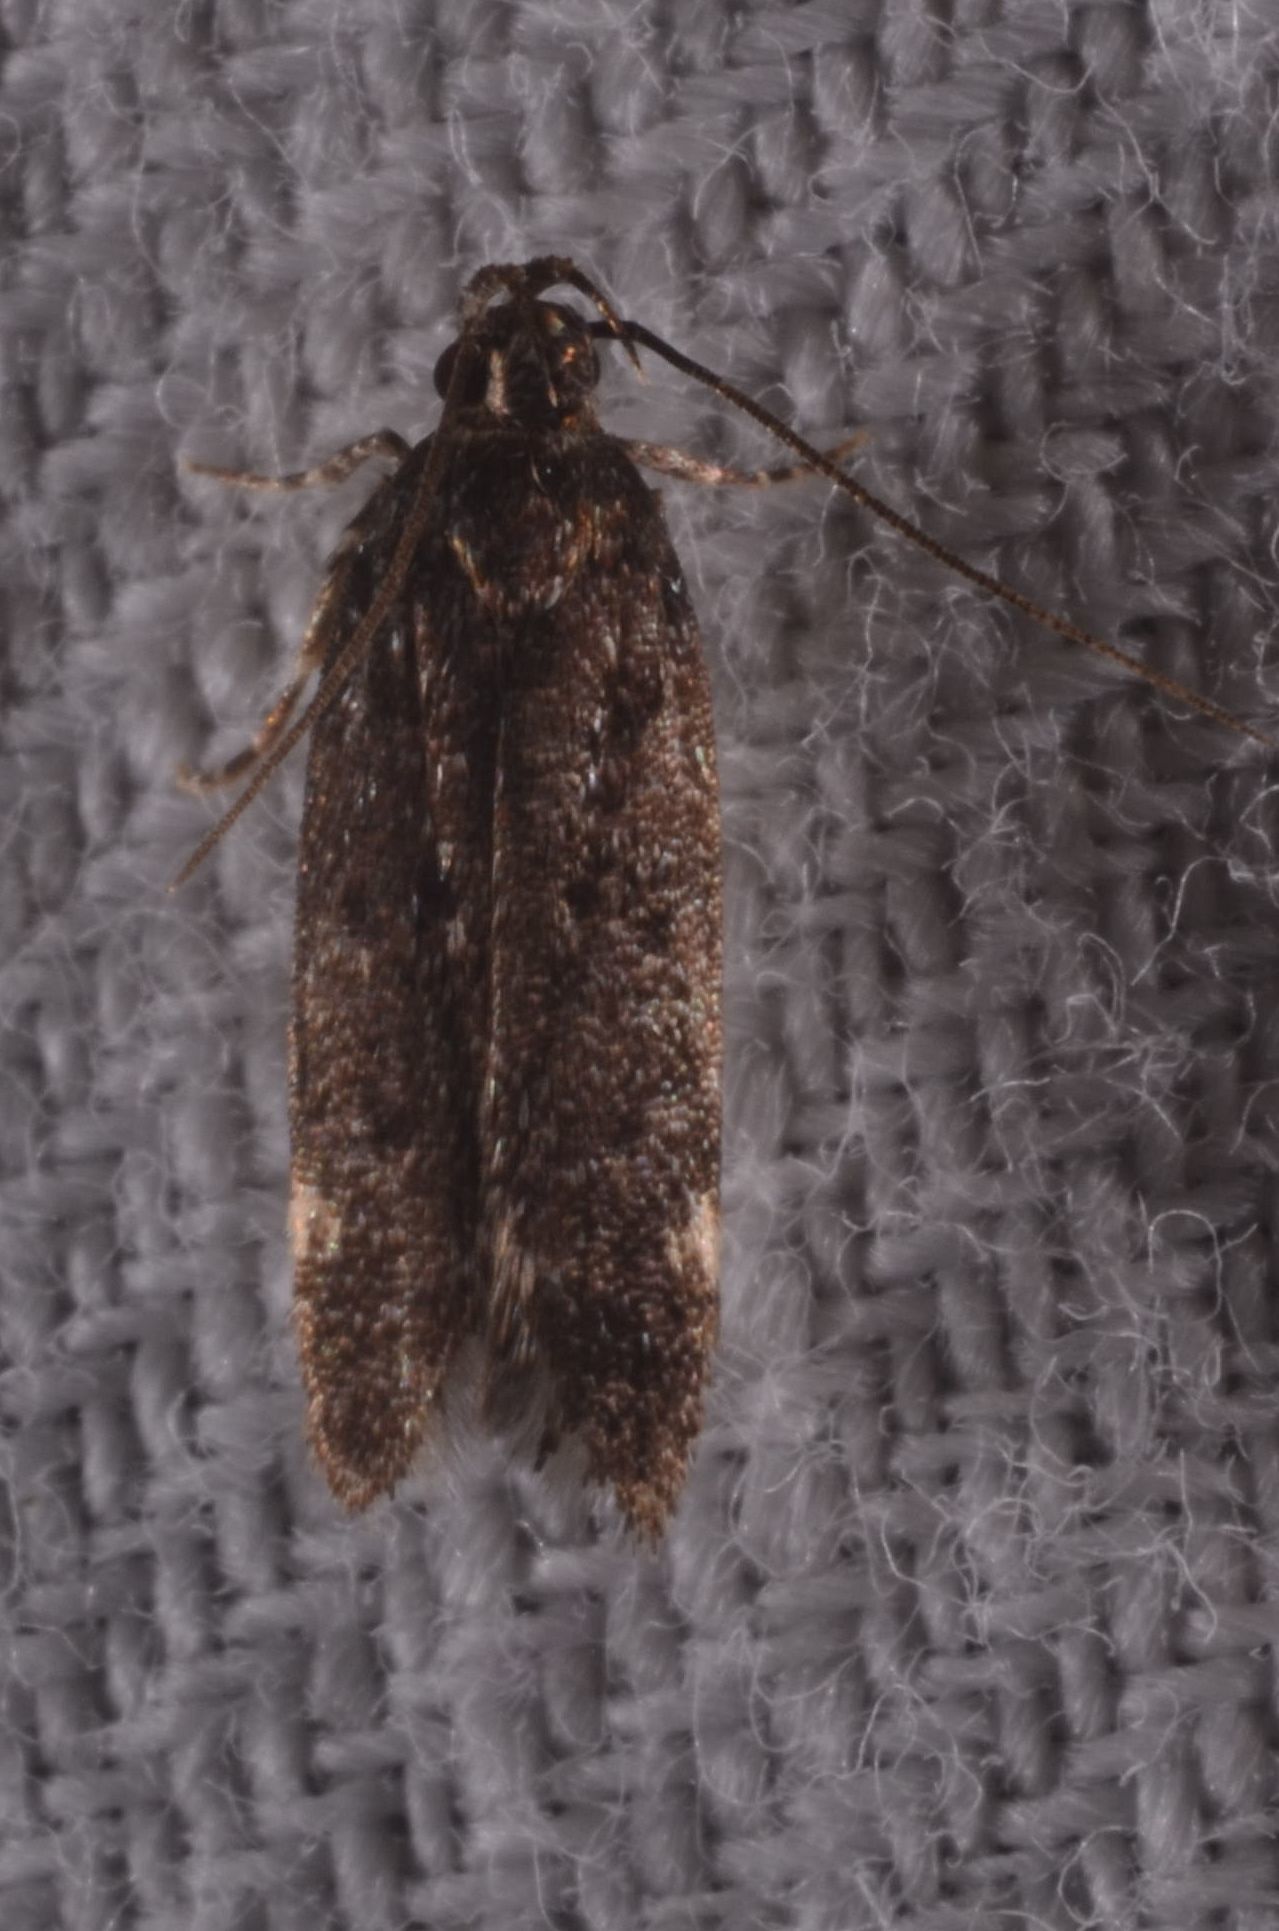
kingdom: Animalia
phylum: Arthropoda
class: Insecta
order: Lepidoptera
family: Gelechiidae
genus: Neofriseria
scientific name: Neofriseria peliella
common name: White-spot groundling
